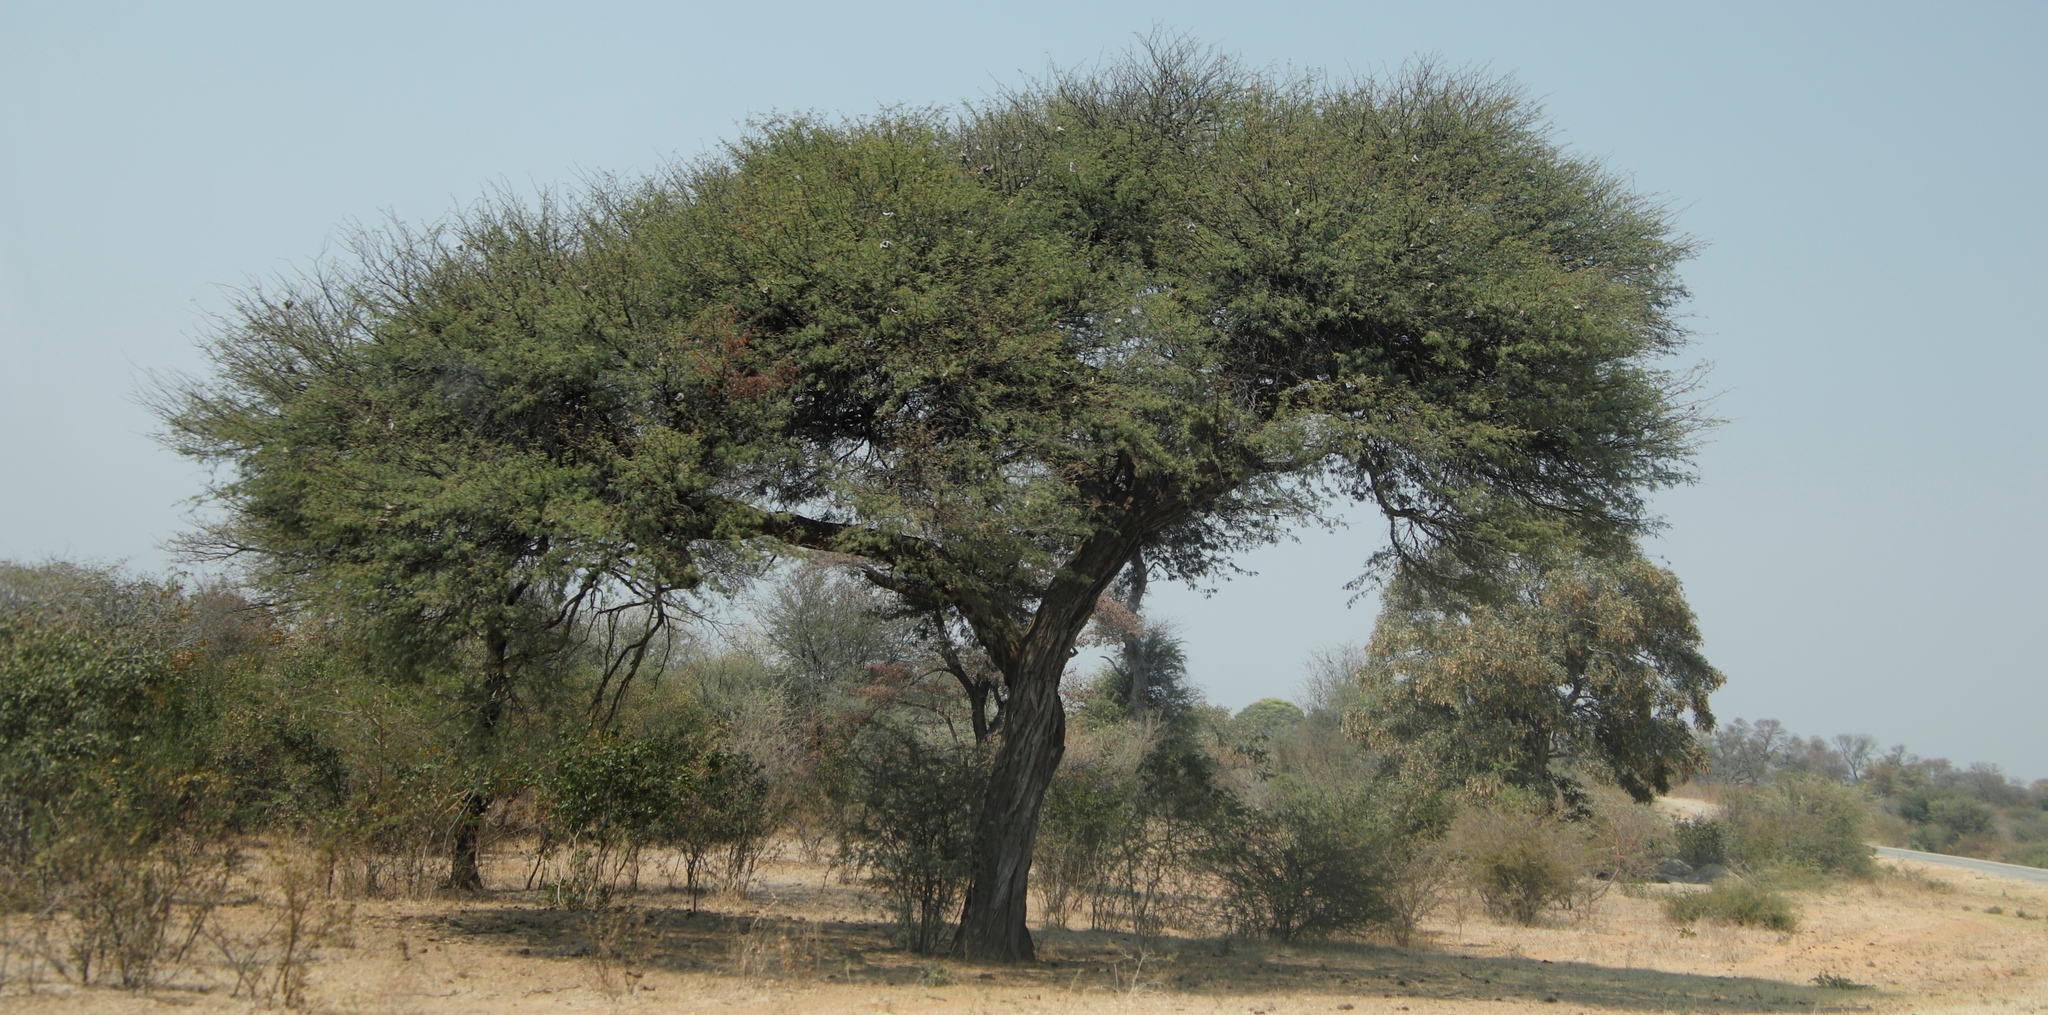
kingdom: Plantae
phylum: Tracheophyta
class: Magnoliopsida
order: Fabales
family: Fabaceae
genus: Vachellia
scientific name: Vachellia erioloba
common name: Camel thorn
